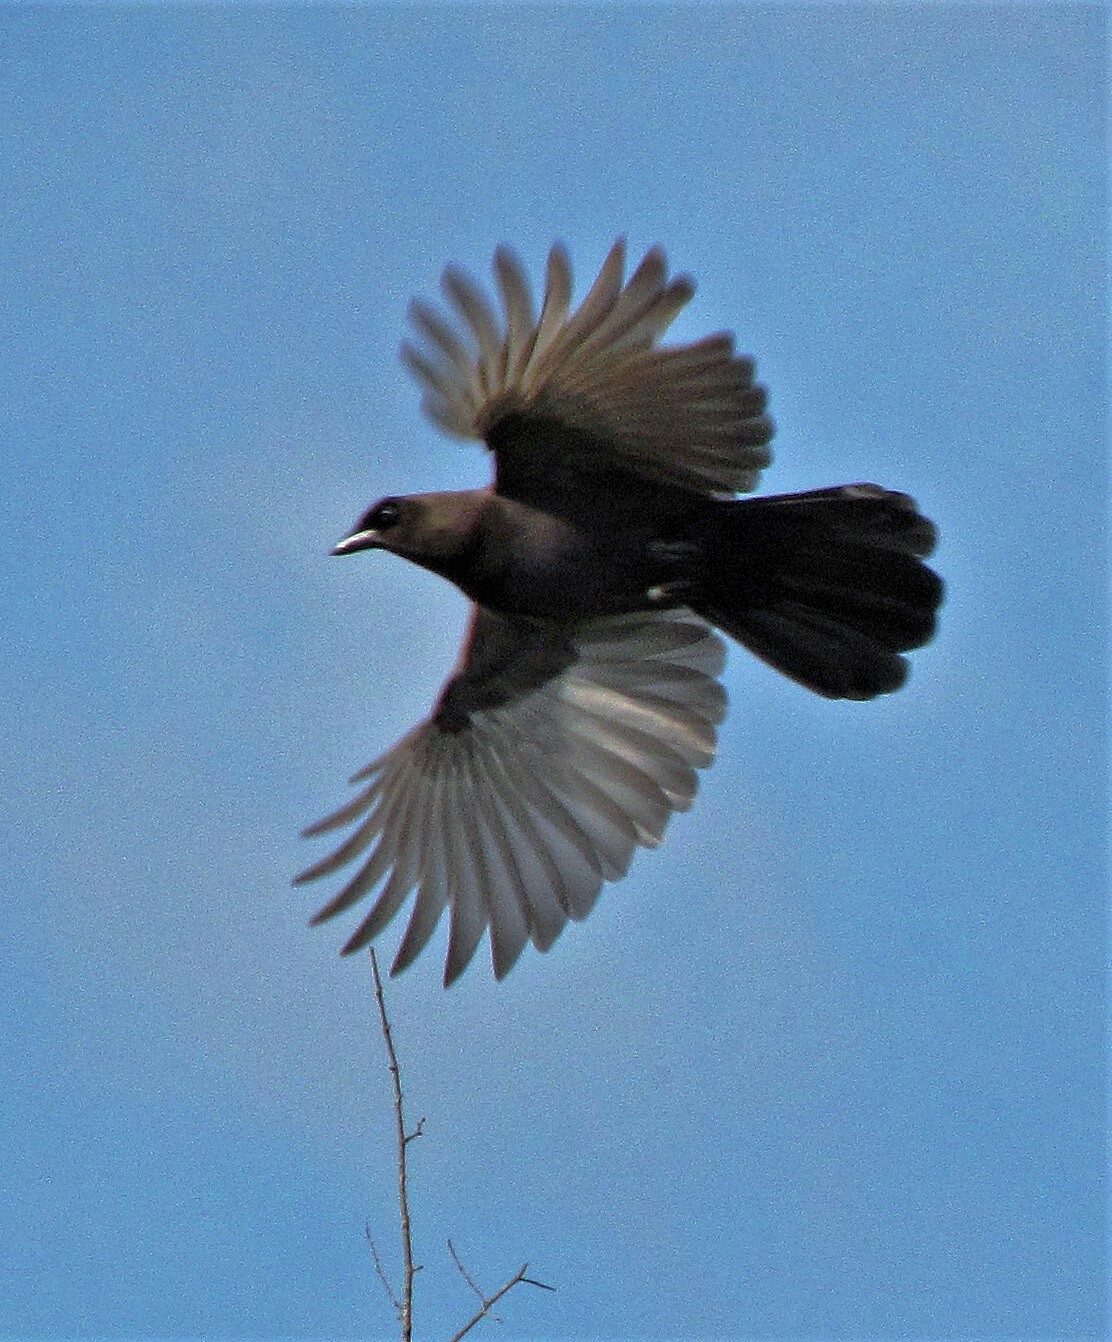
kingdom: Animalia
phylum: Chordata
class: Aves
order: Passeriformes
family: Corvidae
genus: Cyanocorax
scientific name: Cyanocorax cyanomelas
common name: Purplish jay
